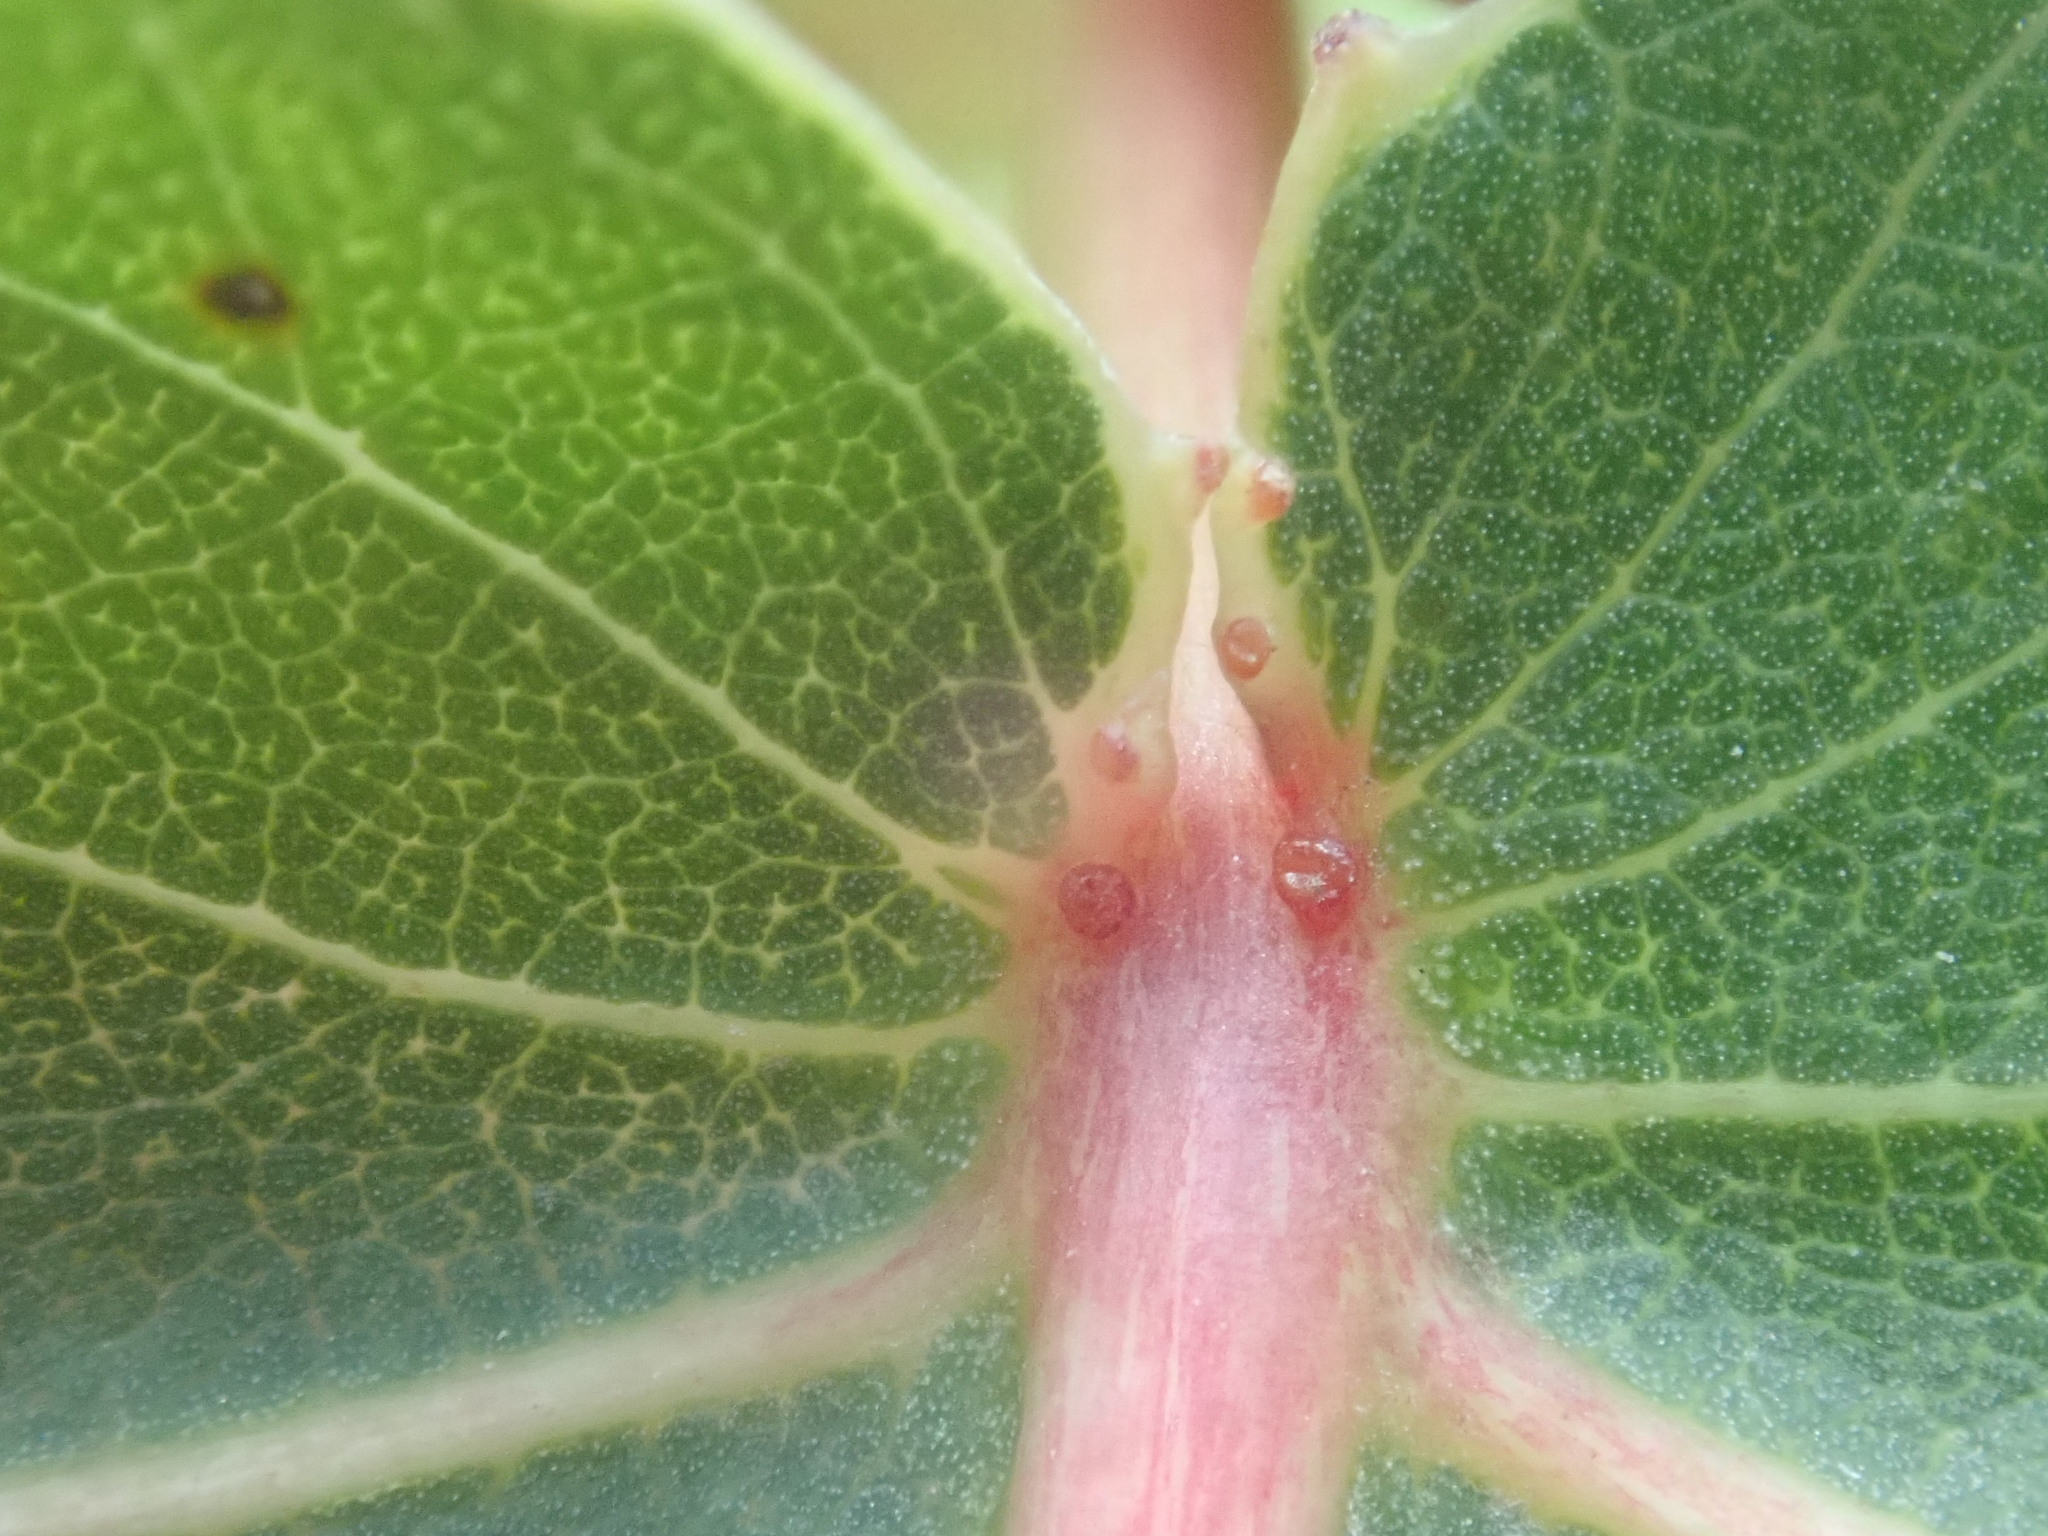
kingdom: Plantae
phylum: Tracheophyta
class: Magnoliopsida
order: Malpighiales
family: Salicaceae
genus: Populus
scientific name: Populus deltoides
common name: Eastern cottonwood
